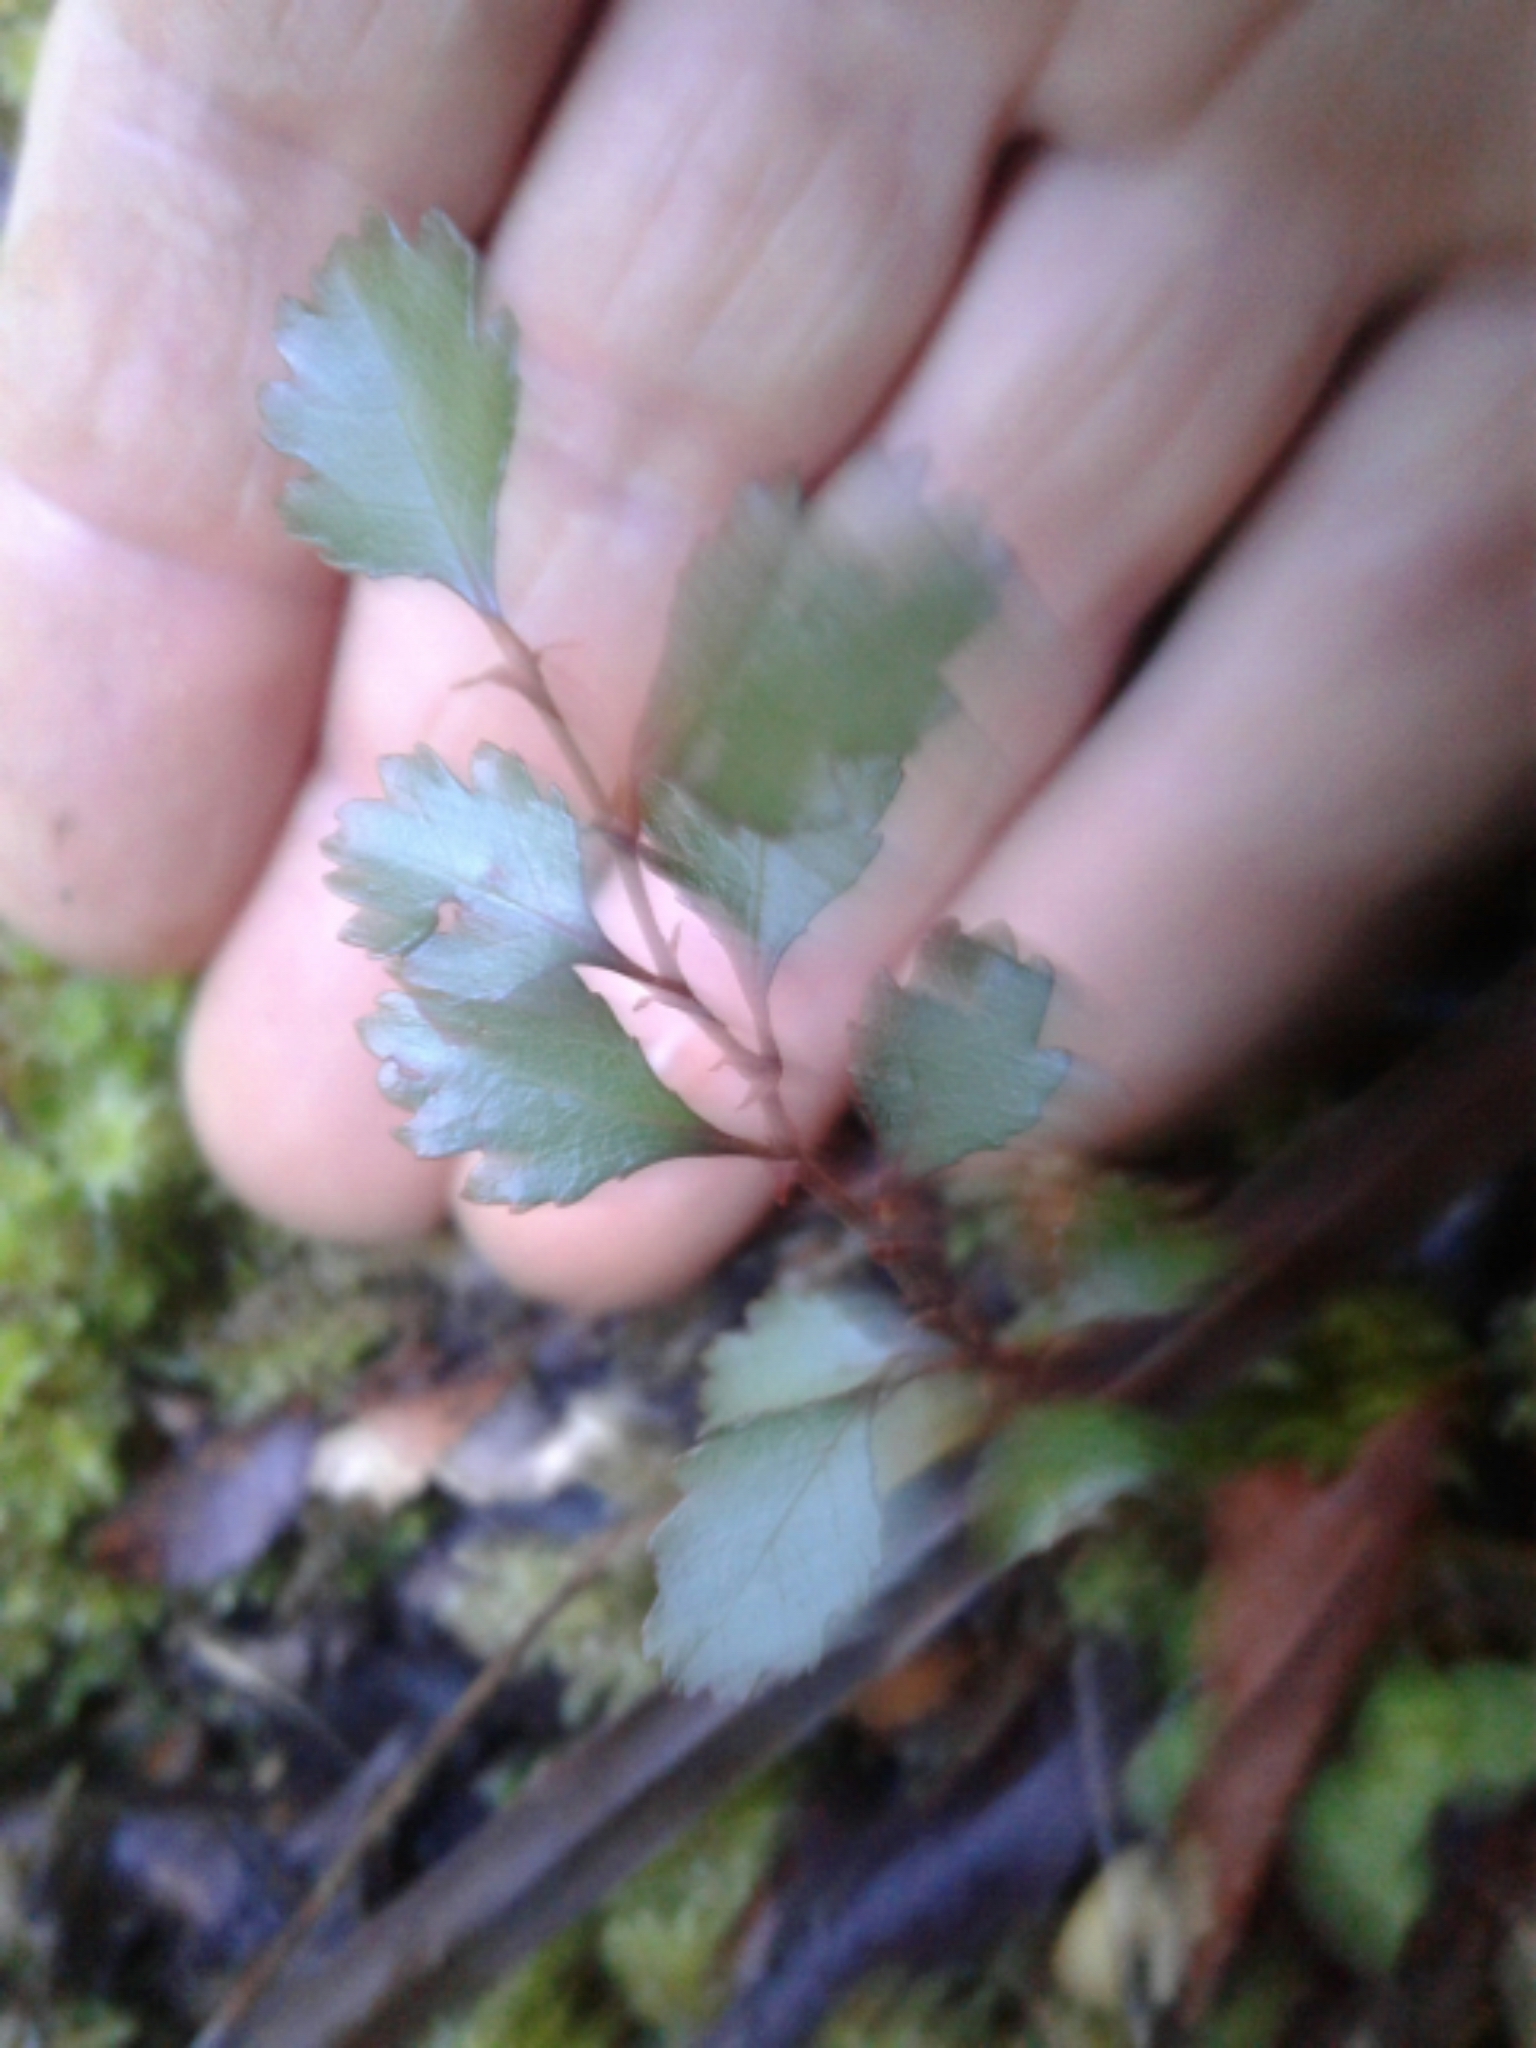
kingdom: Plantae
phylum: Tracheophyta
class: Magnoliopsida
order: Fagales
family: Nothofagaceae
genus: Nothofagus
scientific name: Nothofagus menziesii
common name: Silver beech
